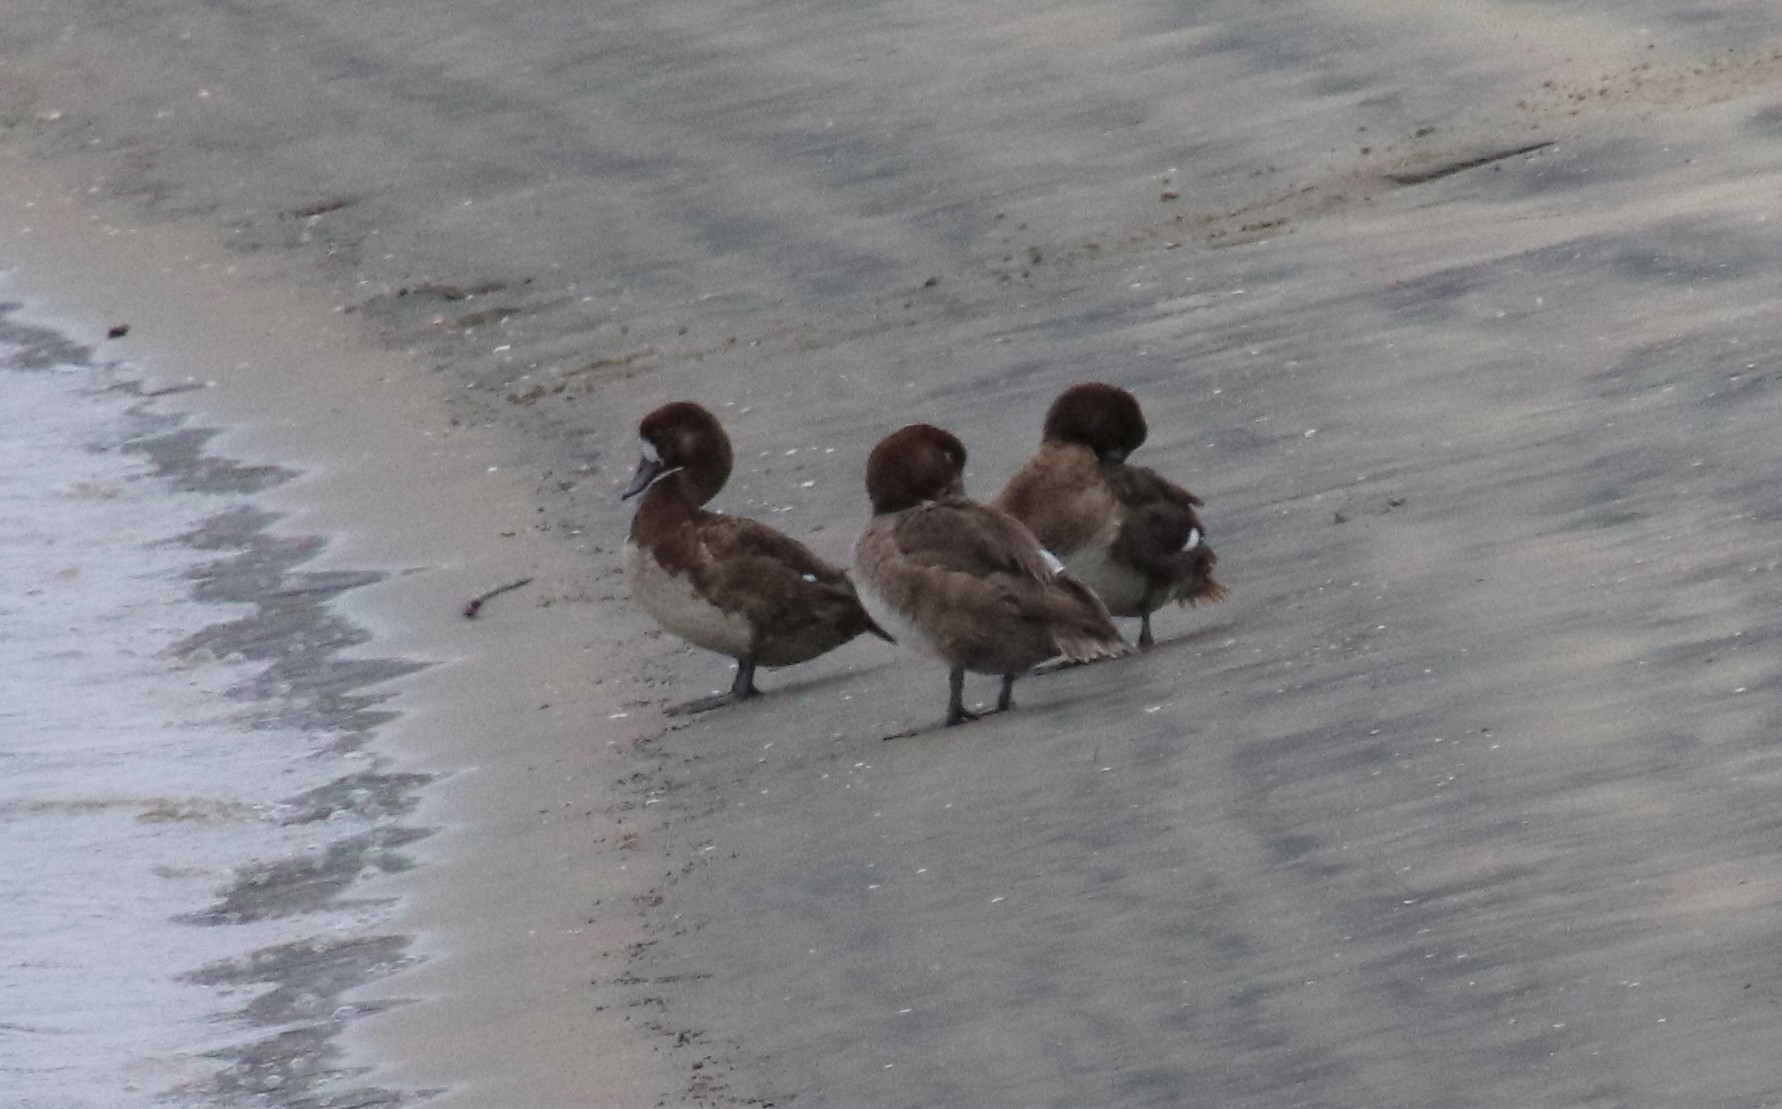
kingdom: Animalia
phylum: Chordata
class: Aves
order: Anseriformes
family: Anatidae
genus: Aythya
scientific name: Aythya affinis
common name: Lesser scaup
